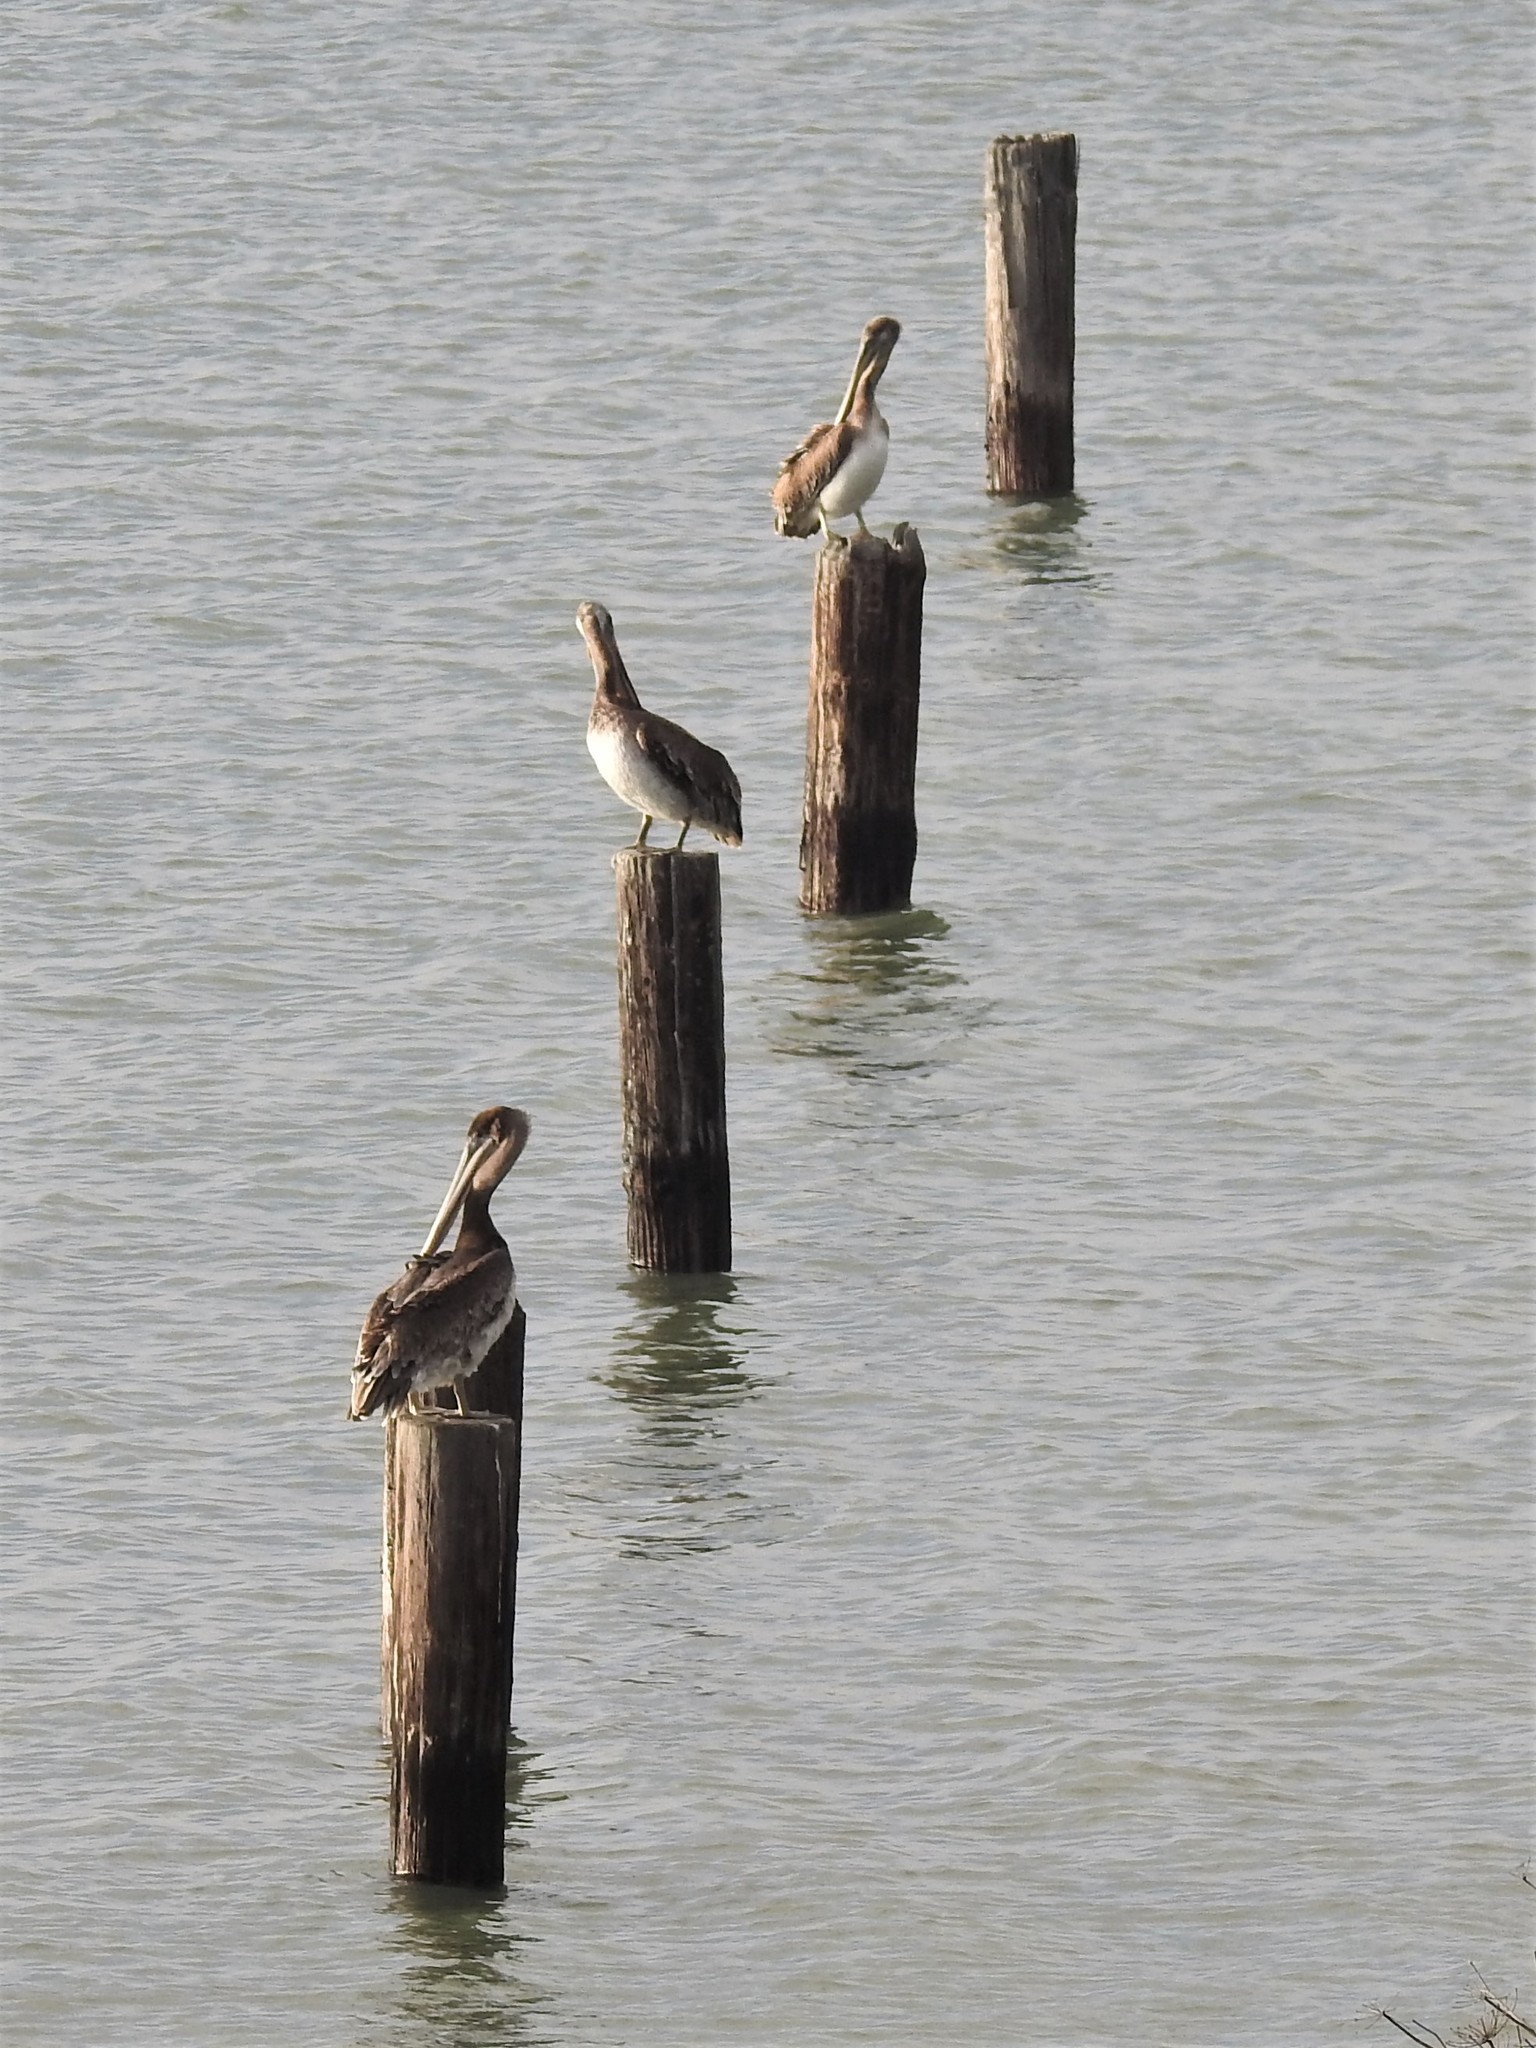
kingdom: Animalia
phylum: Chordata
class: Aves
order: Pelecaniformes
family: Pelecanidae
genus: Pelecanus
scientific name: Pelecanus occidentalis
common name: Brown pelican
